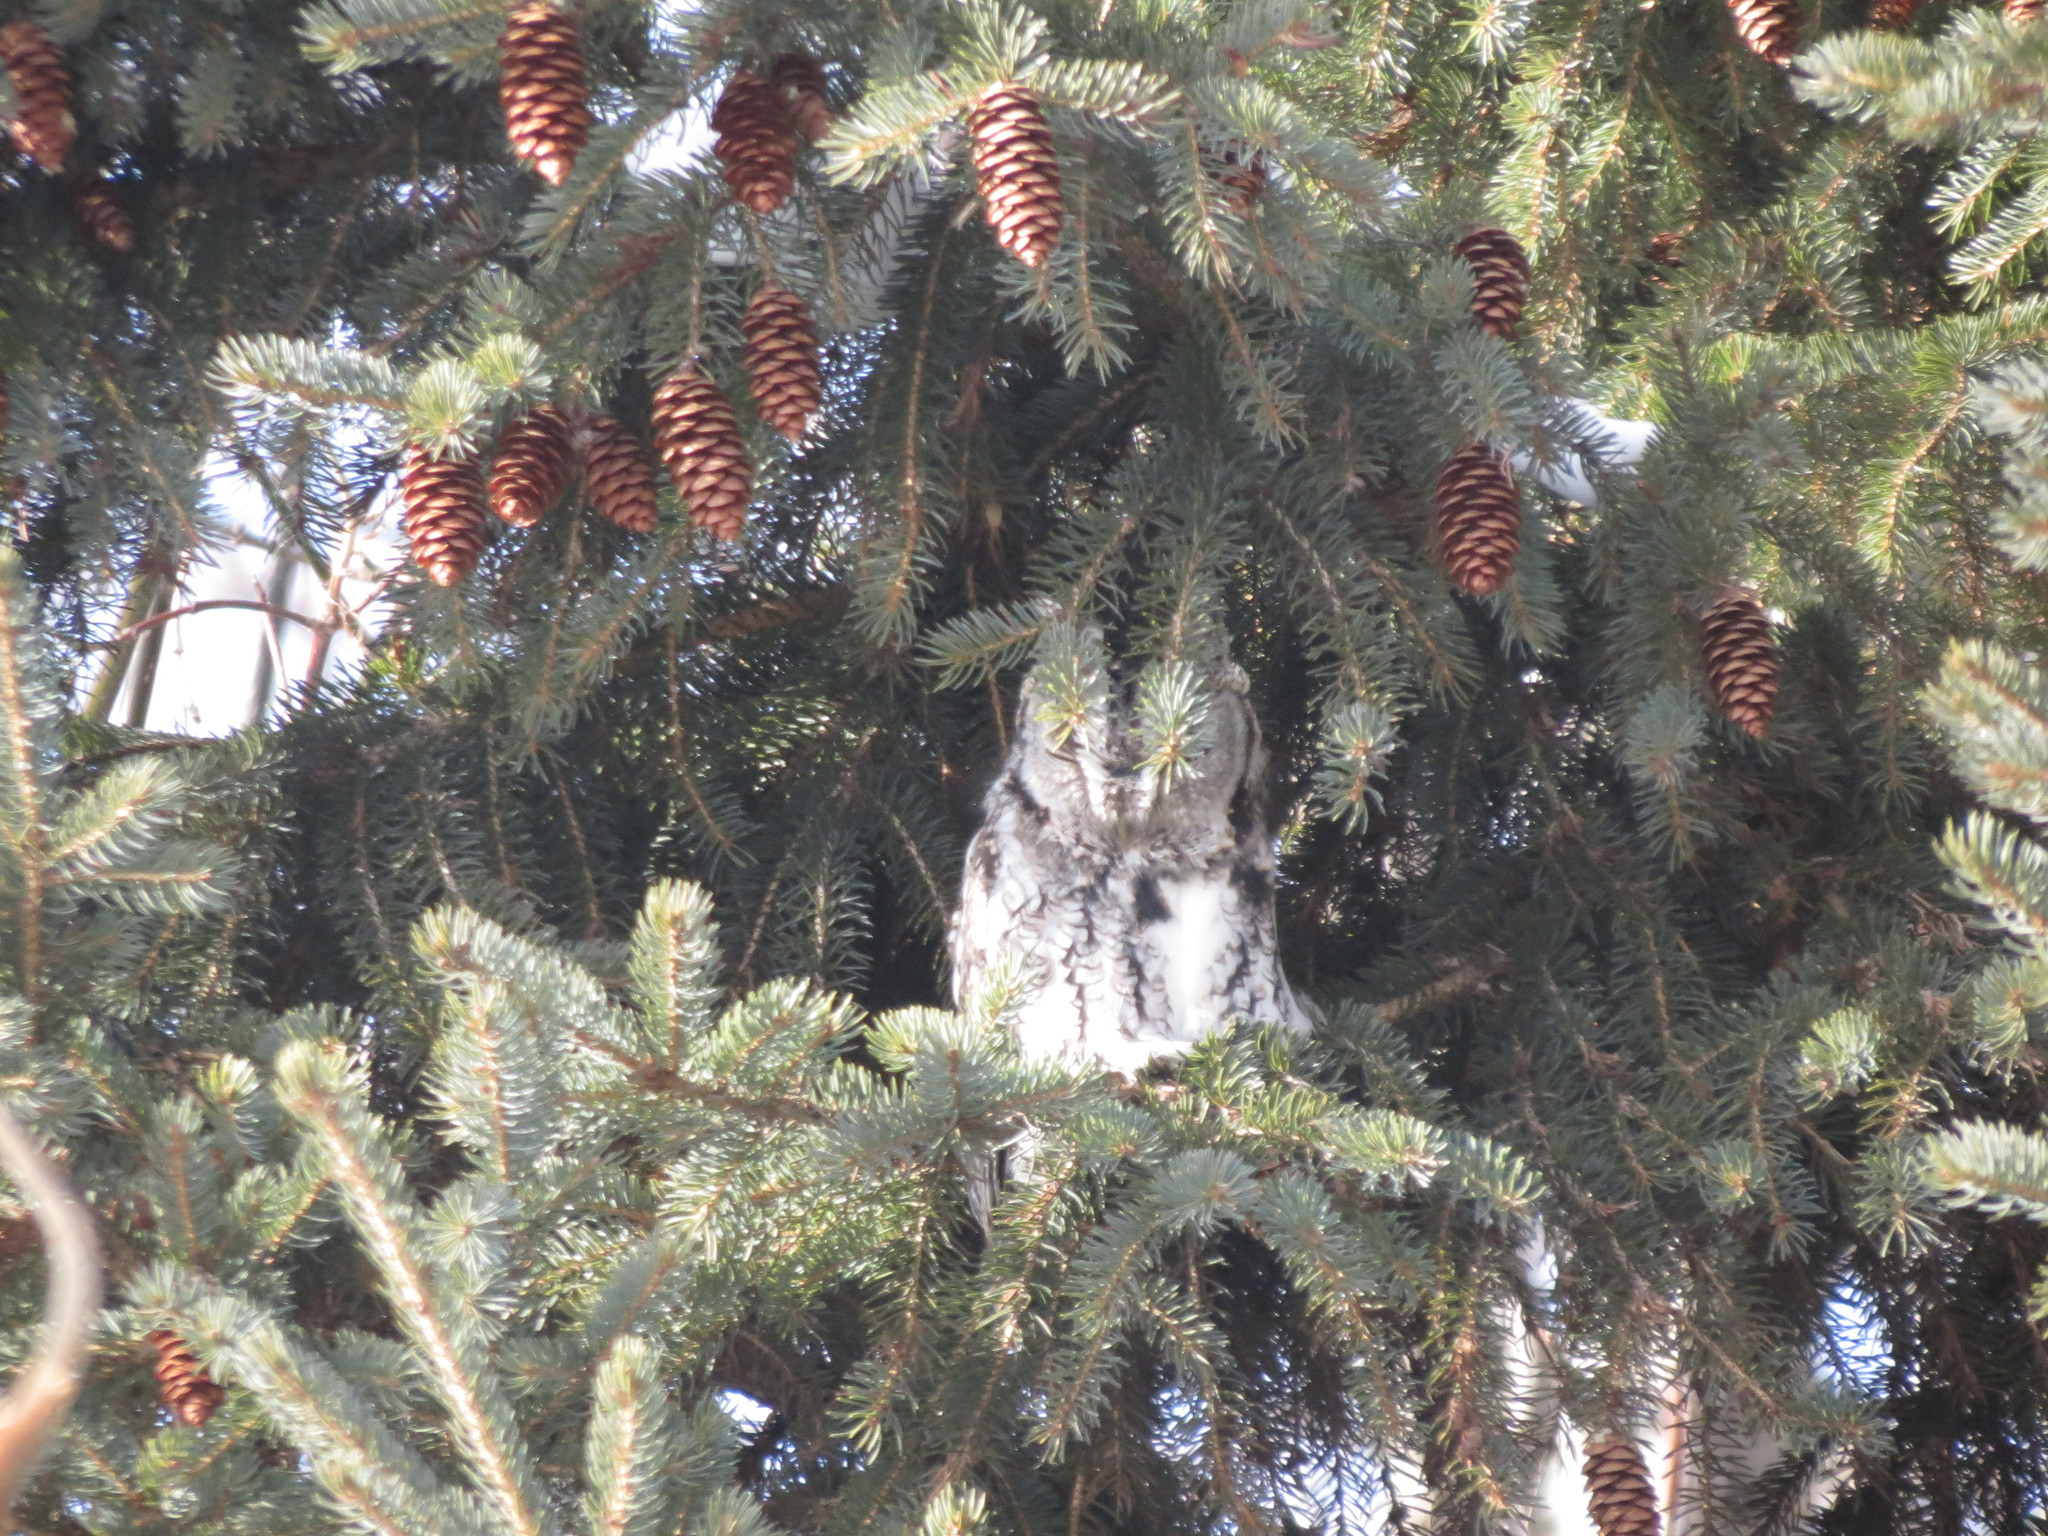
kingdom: Animalia
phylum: Chordata
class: Aves
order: Strigiformes
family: Strigidae
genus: Megascops
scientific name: Megascops asio
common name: Eastern screech-owl
